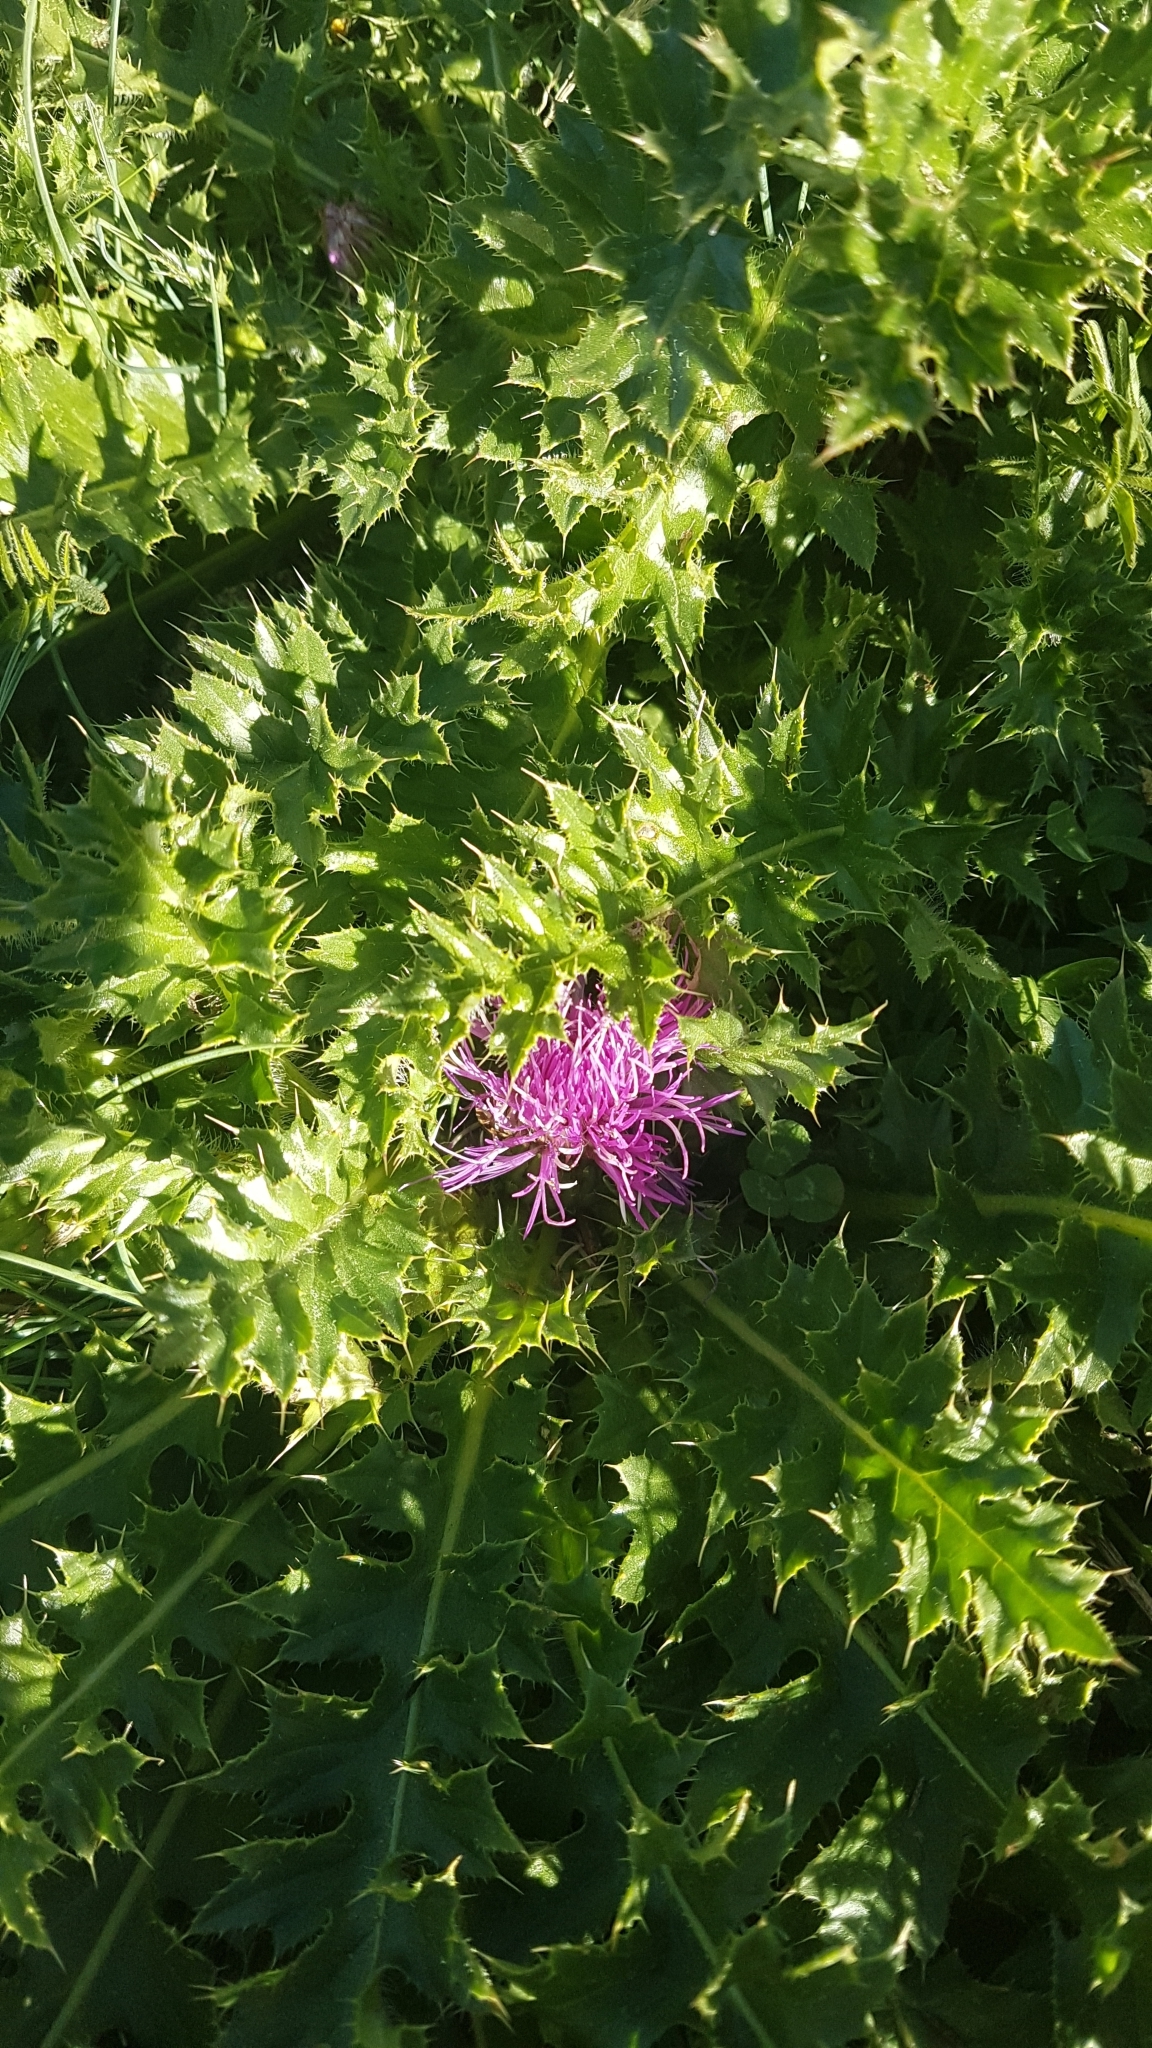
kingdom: Plantae
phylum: Tracheophyta
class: Magnoliopsida
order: Asterales
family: Asteraceae
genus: Cirsium
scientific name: Cirsium acaulon
